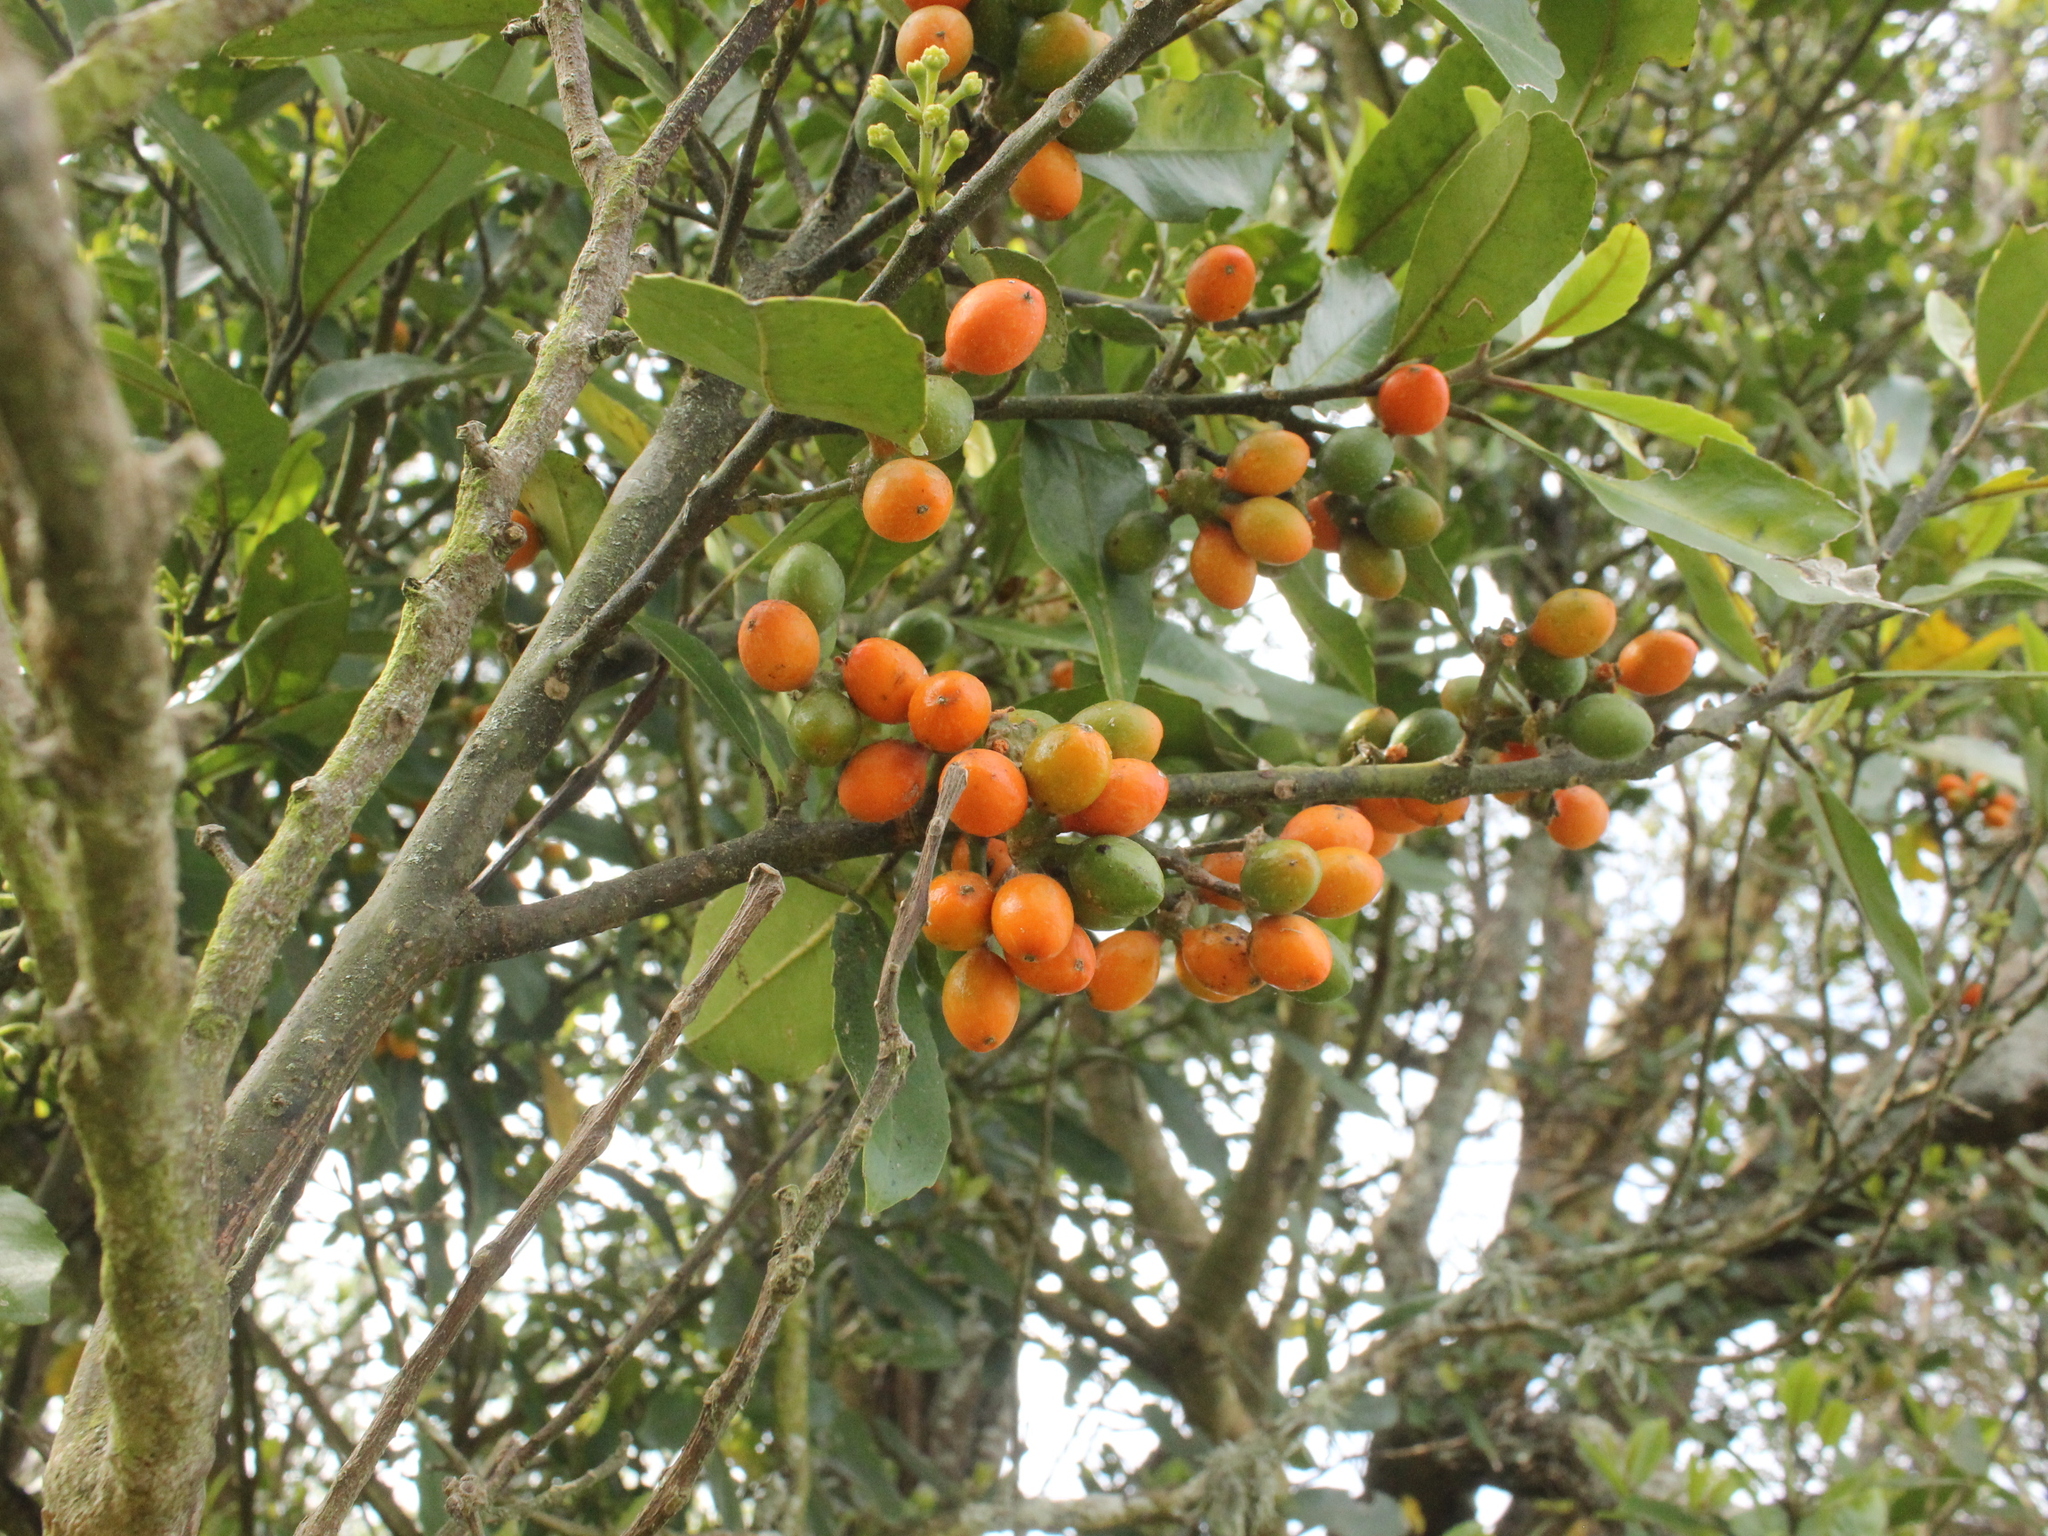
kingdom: Plantae
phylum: Tracheophyta
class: Magnoliopsida
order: Laurales
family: Monimiaceae
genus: Hedycarya
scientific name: Hedycarya arborea
